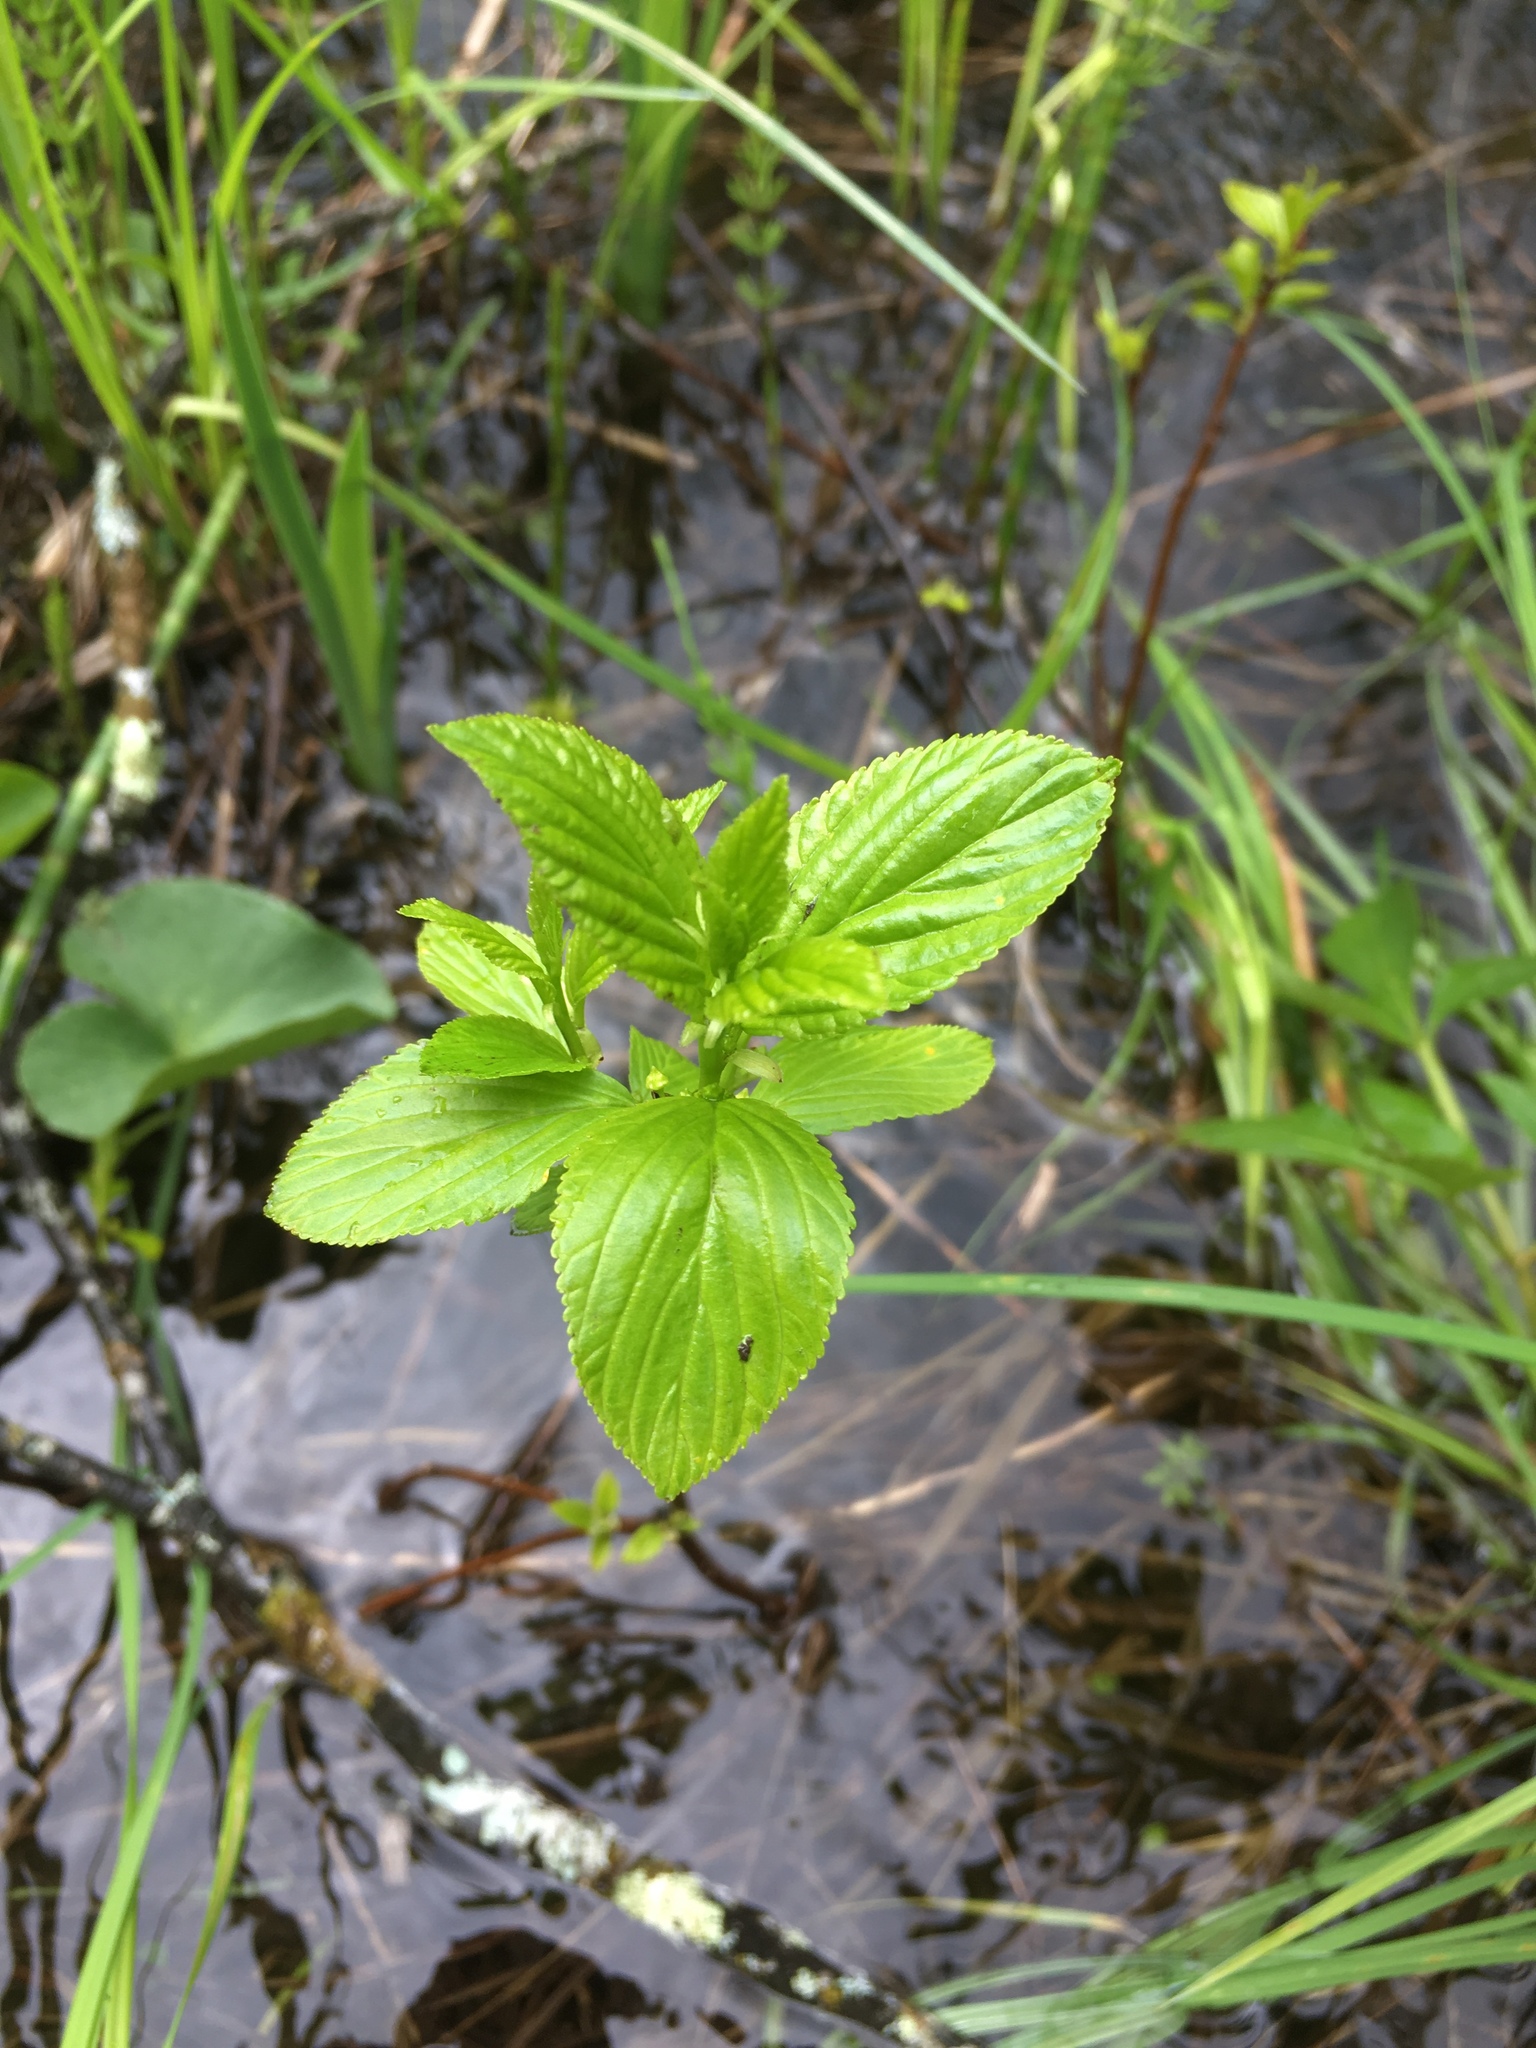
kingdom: Plantae
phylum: Tracheophyta
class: Magnoliopsida
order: Rosales
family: Rhamnaceae
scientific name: Rhamnaceae
